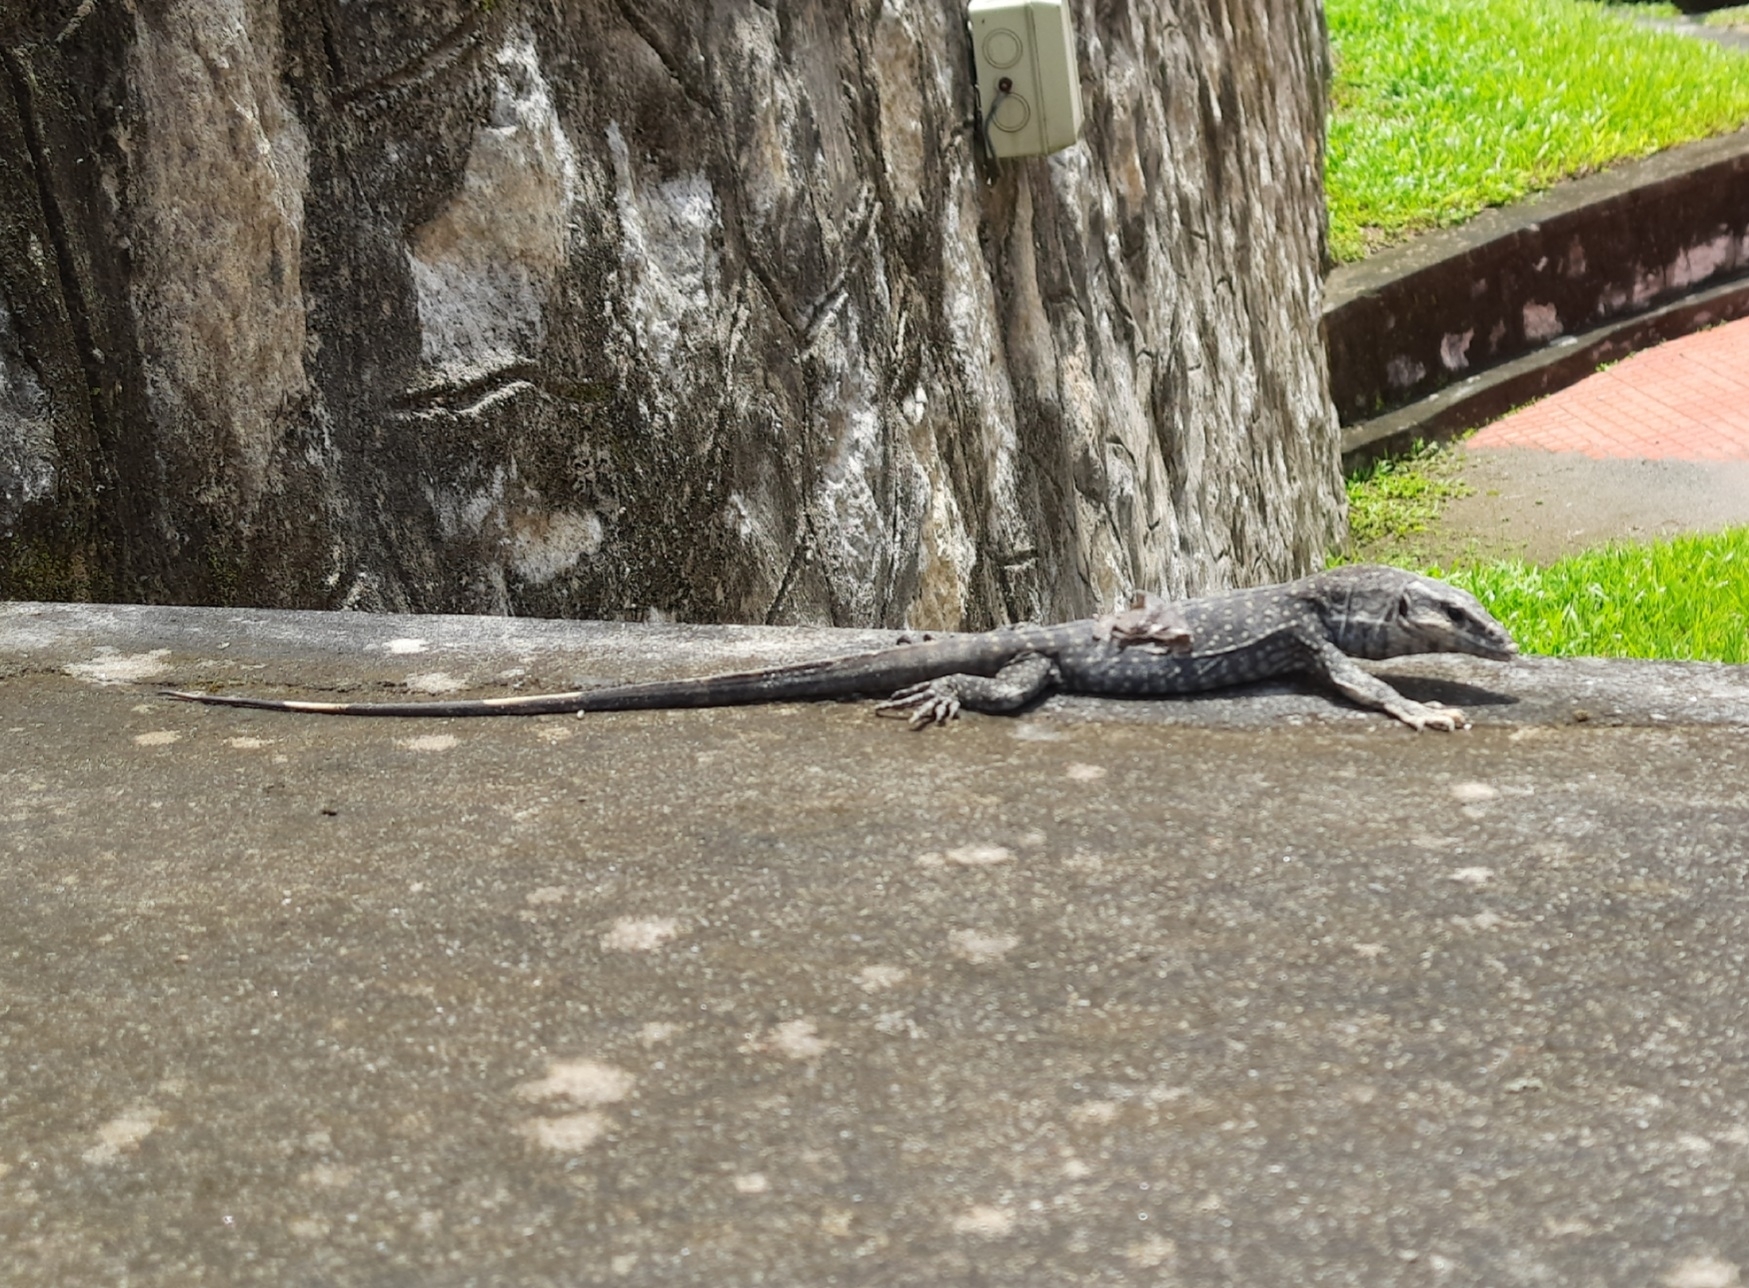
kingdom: Animalia
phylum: Chordata
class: Squamata
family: Varanidae
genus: Varanus
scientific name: Varanus bengalensis
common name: Bengal monitor
